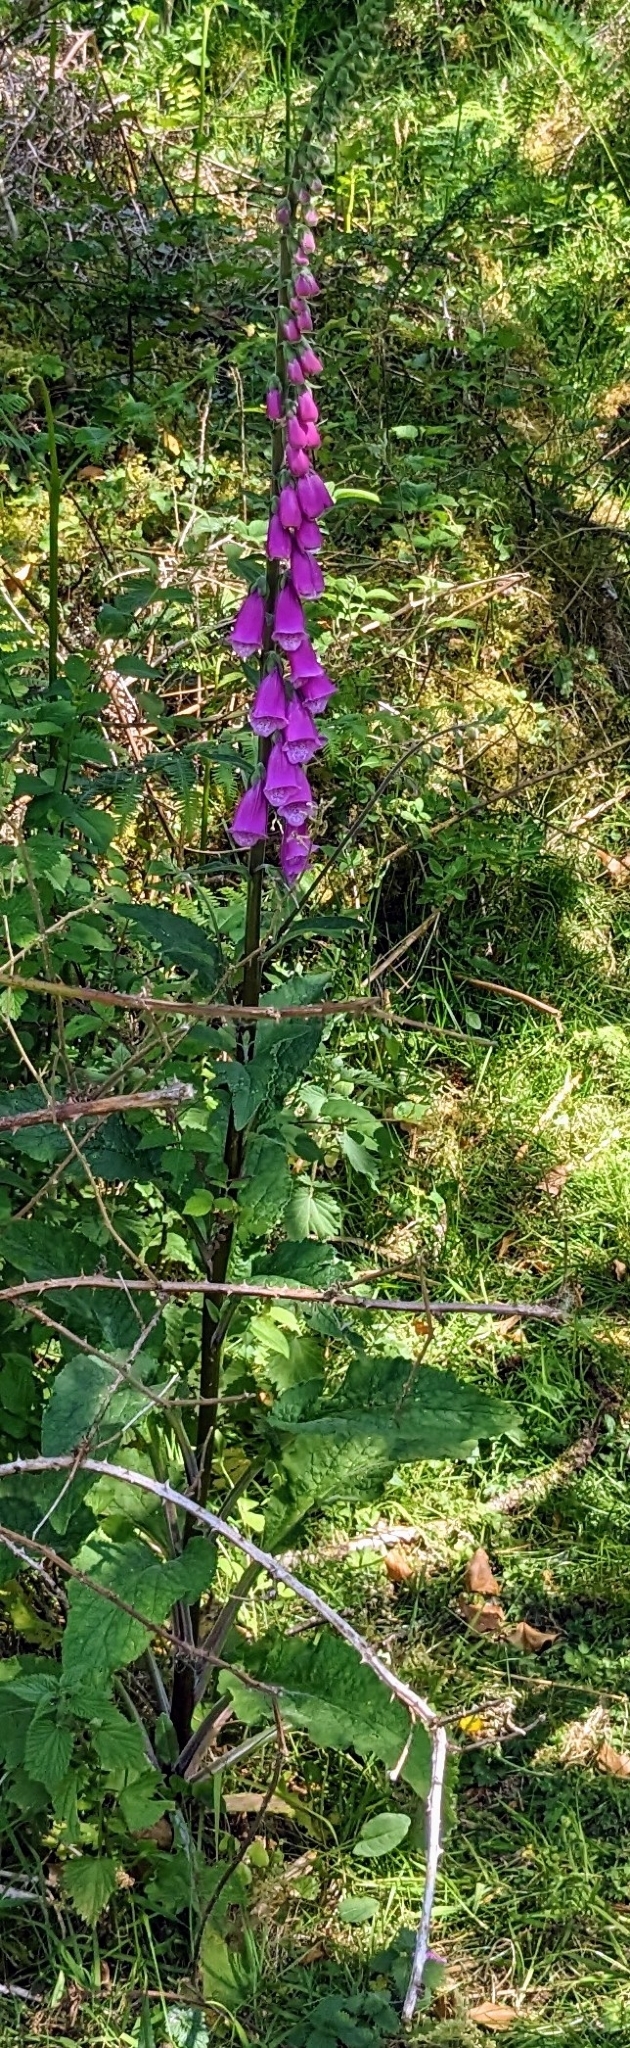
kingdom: Plantae
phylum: Tracheophyta
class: Magnoliopsida
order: Lamiales
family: Plantaginaceae
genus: Digitalis
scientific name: Digitalis purpurea
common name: Foxglove
